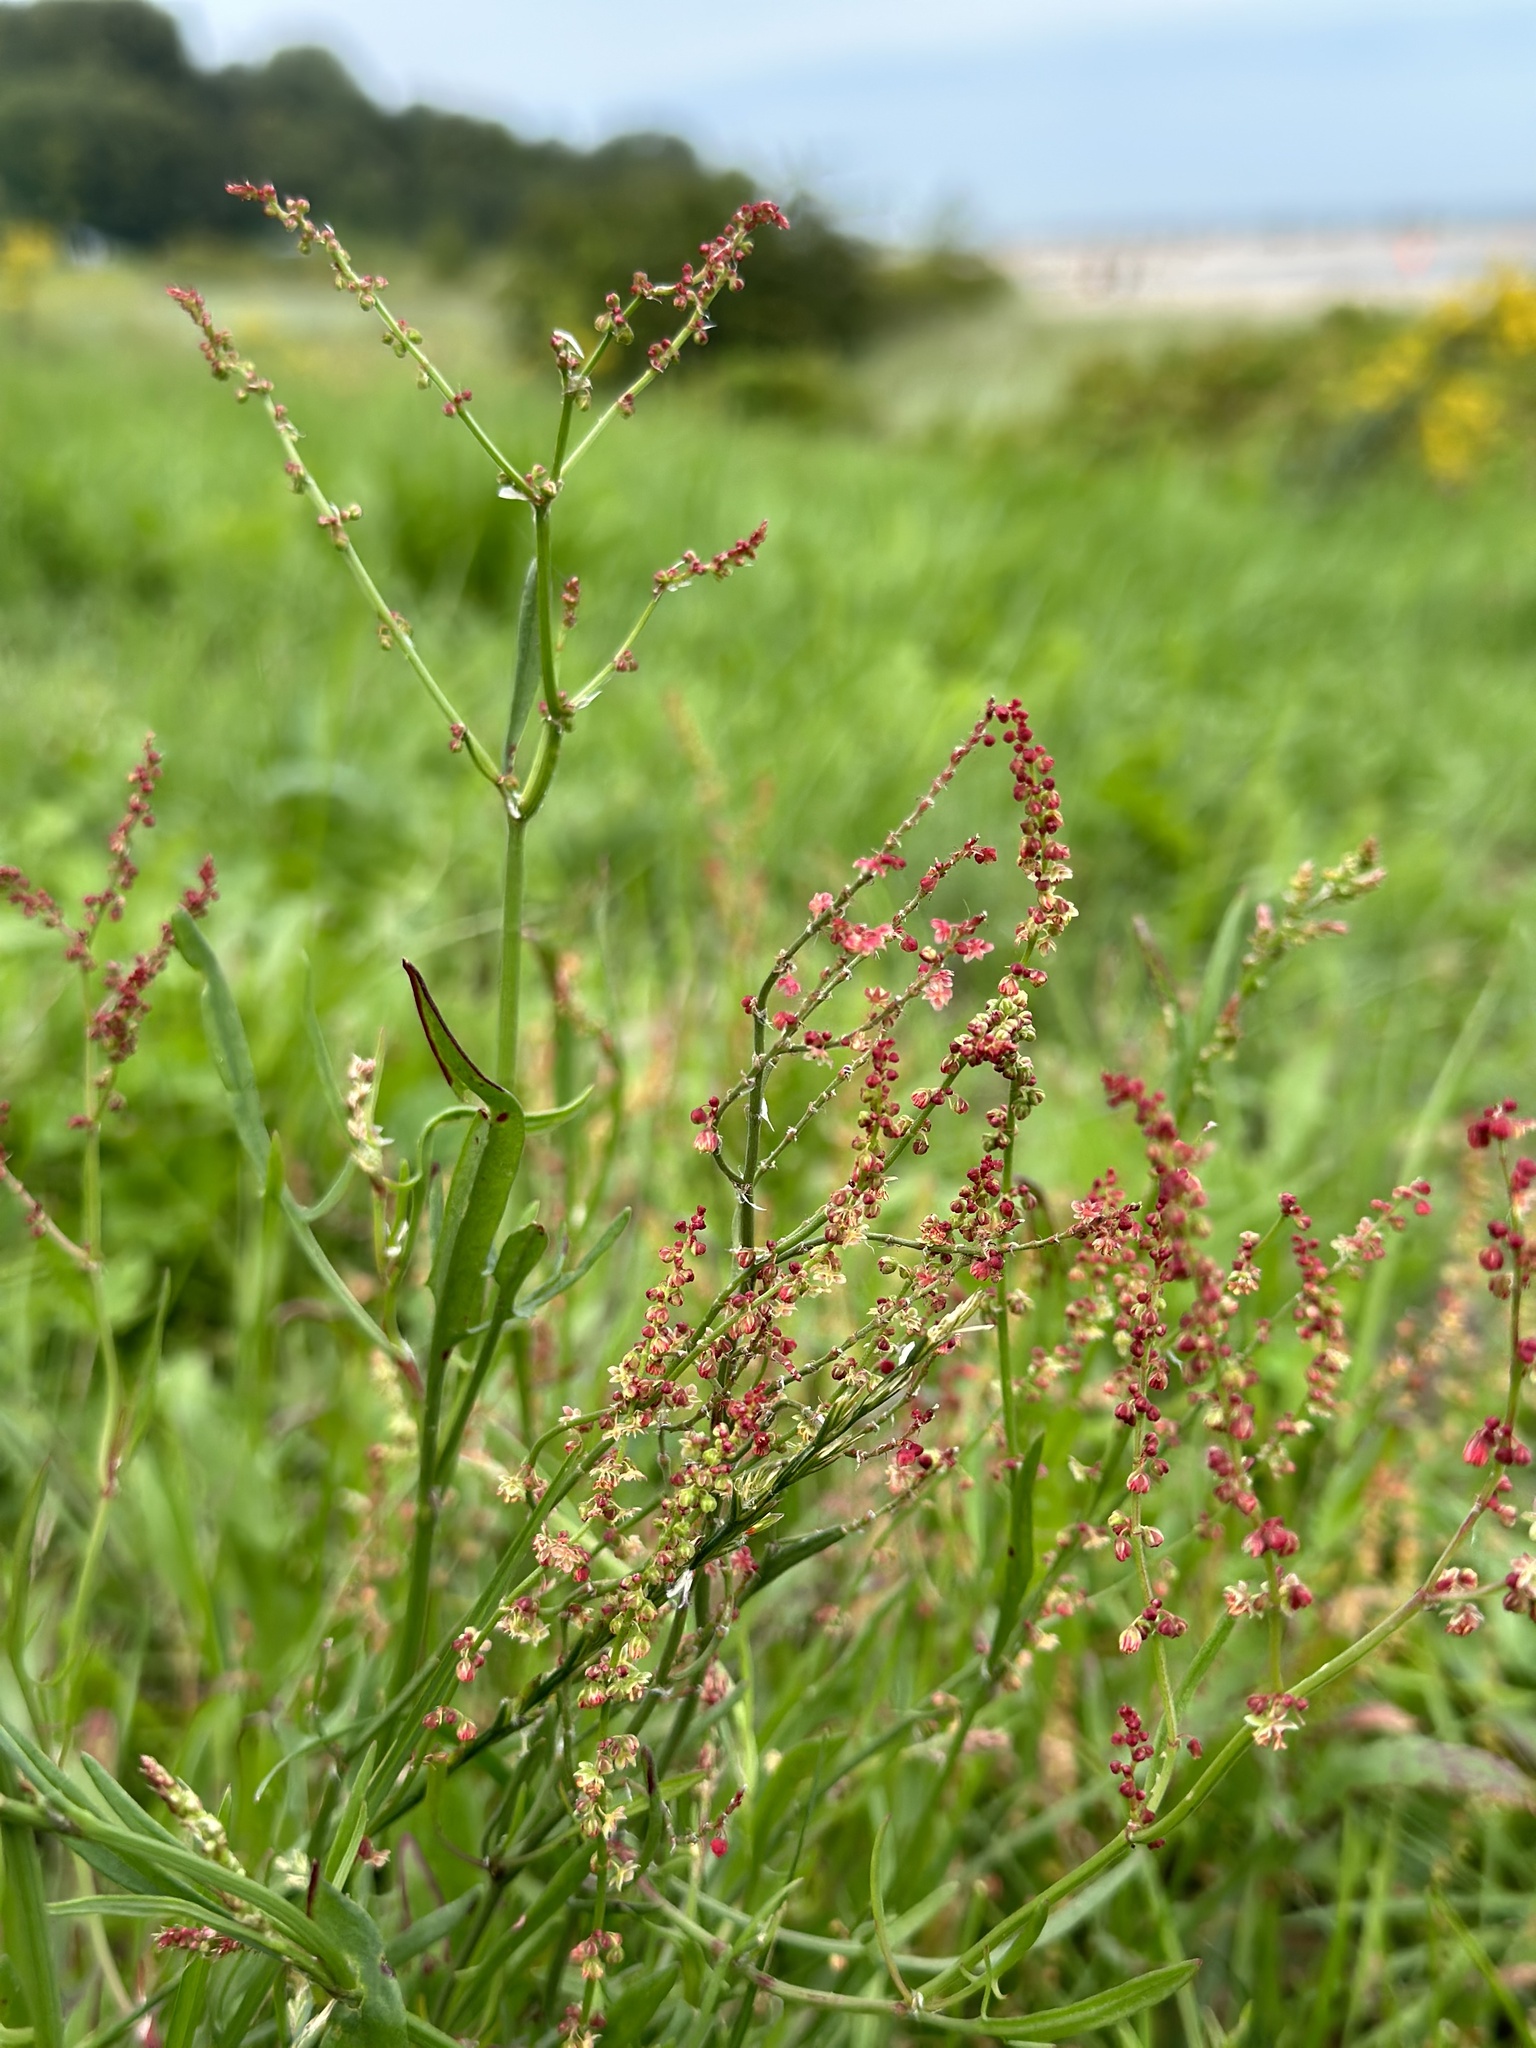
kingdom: Plantae
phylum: Tracheophyta
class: Magnoliopsida
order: Caryophyllales
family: Polygonaceae
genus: Rumex
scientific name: Rumex acetosella
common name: Common sheep sorrel
